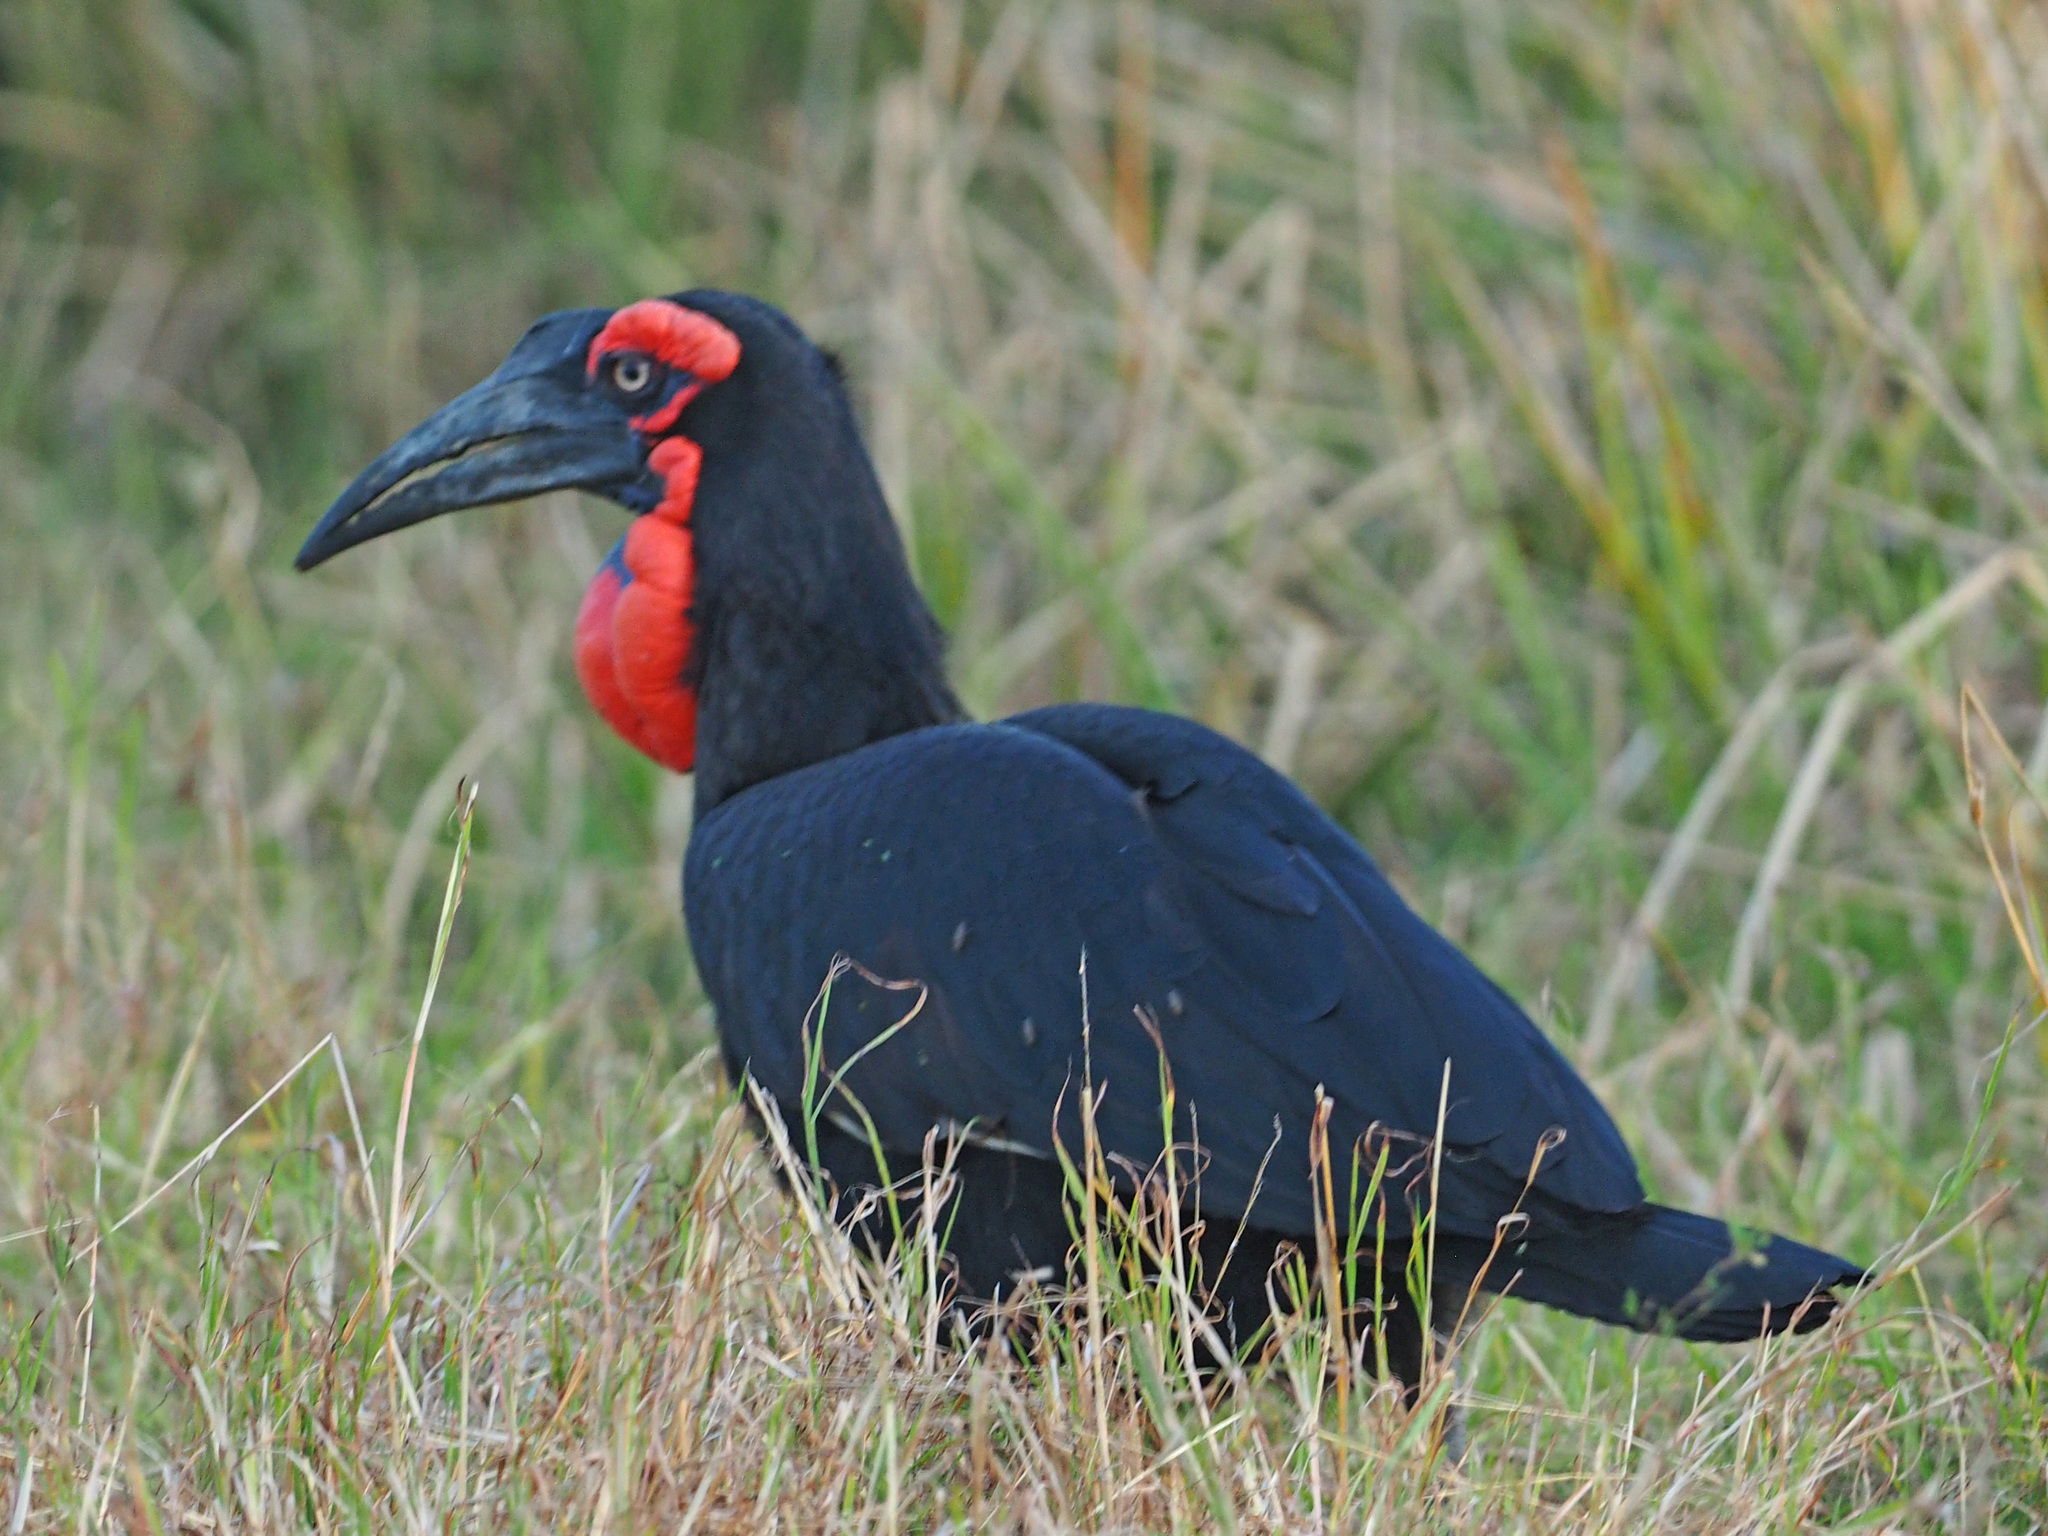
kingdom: Animalia
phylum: Chordata
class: Aves
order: Bucerotiformes
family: Bucorvidae
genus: Bucorvus
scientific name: Bucorvus leadbeateri
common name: Southern ground-hornbill
